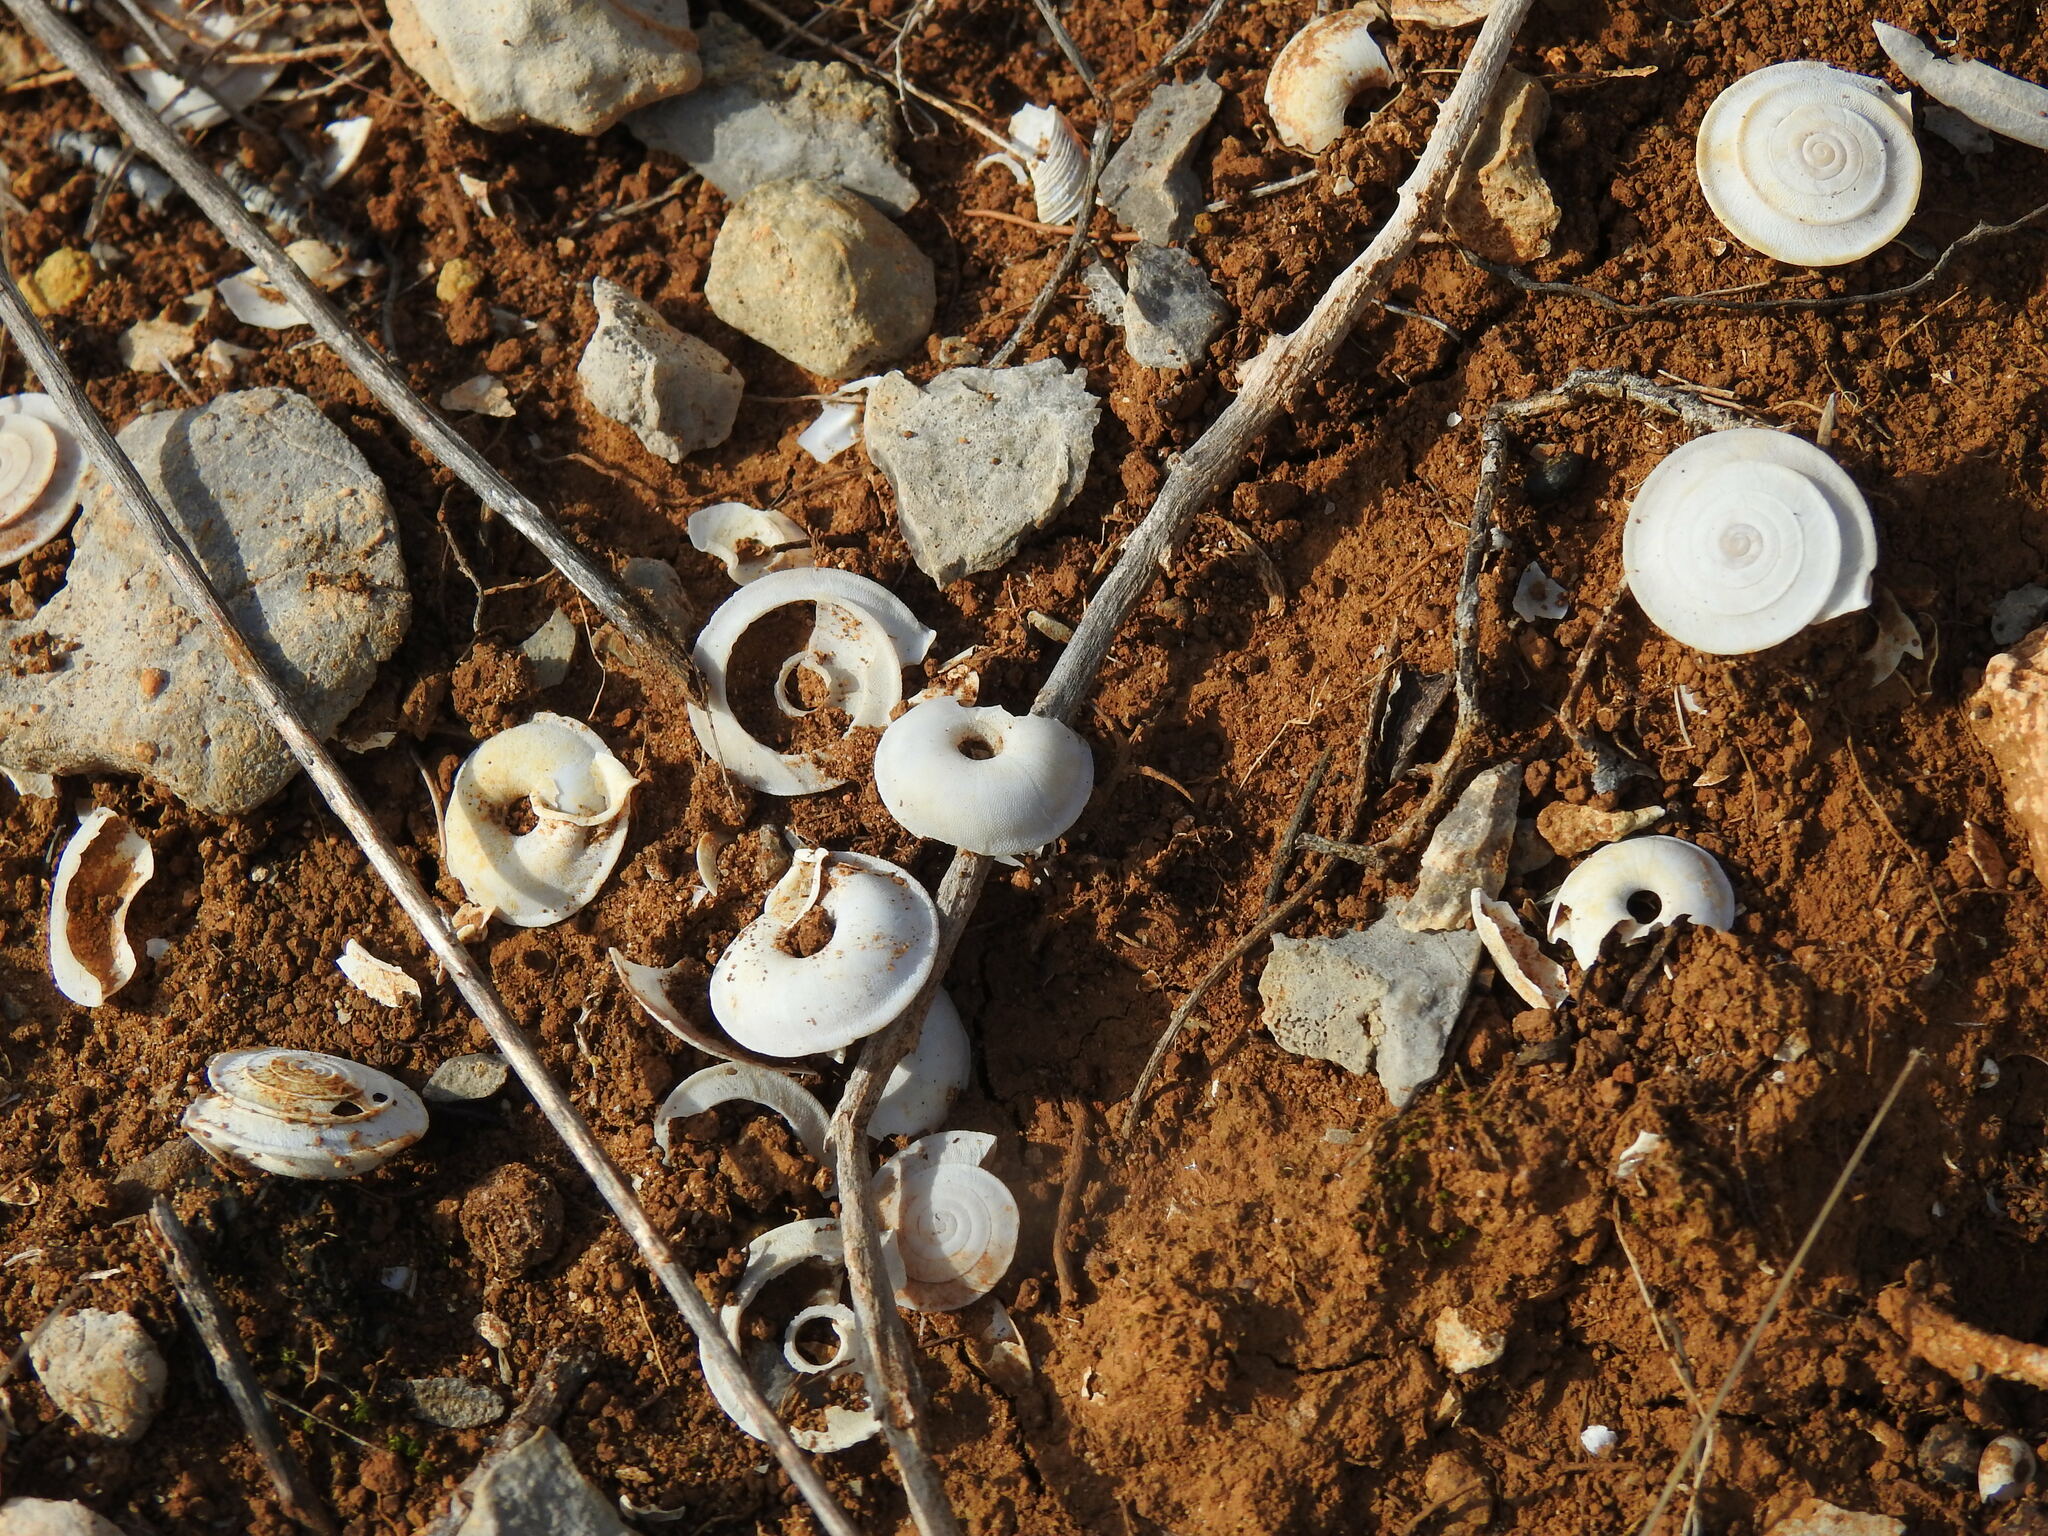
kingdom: Animalia
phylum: Mollusca
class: Gastropoda
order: Stylommatophora
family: Trissexodontidae
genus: Gittenbergeria
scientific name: Gittenbergeria turriplana
